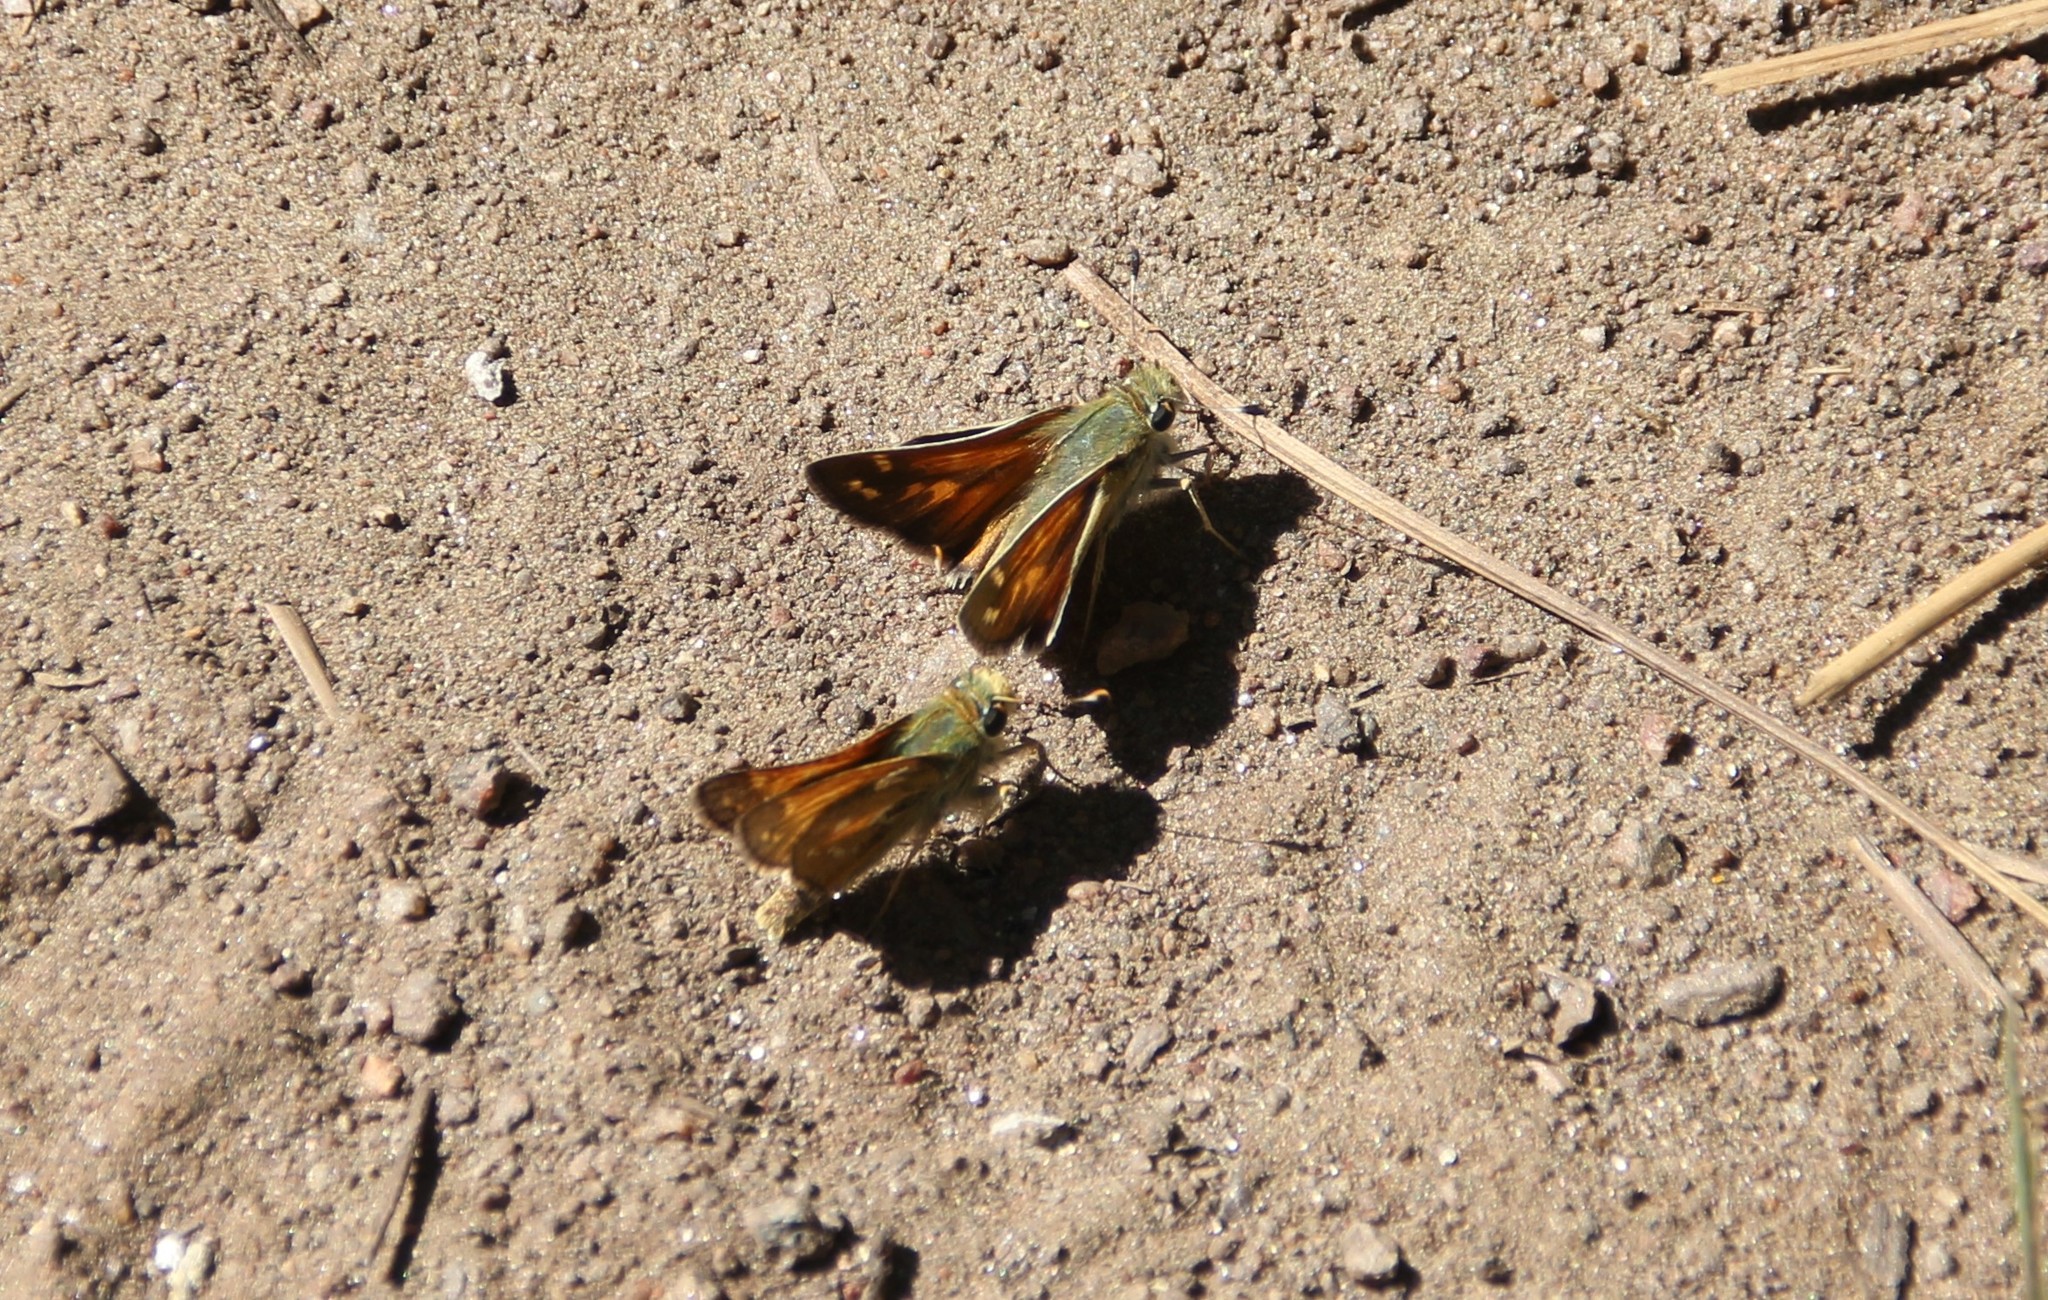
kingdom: Animalia
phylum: Arthropoda
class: Insecta
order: Lepidoptera
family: Hesperiidae
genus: Hesperia
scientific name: Hesperia comma
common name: Common branded skipper
